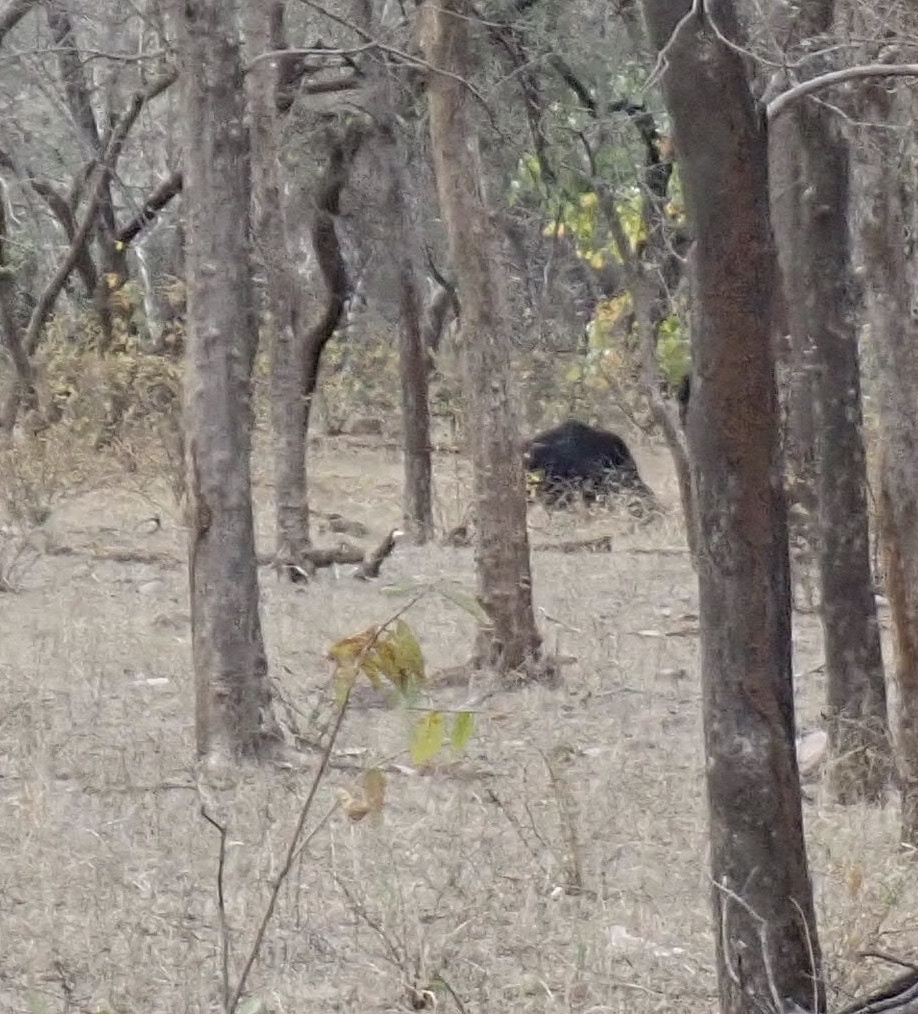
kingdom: Animalia
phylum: Chordata
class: Mammalia
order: Carnivora
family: Ursidae
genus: Melursus
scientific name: Melursus ursinus
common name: Sloth bear
